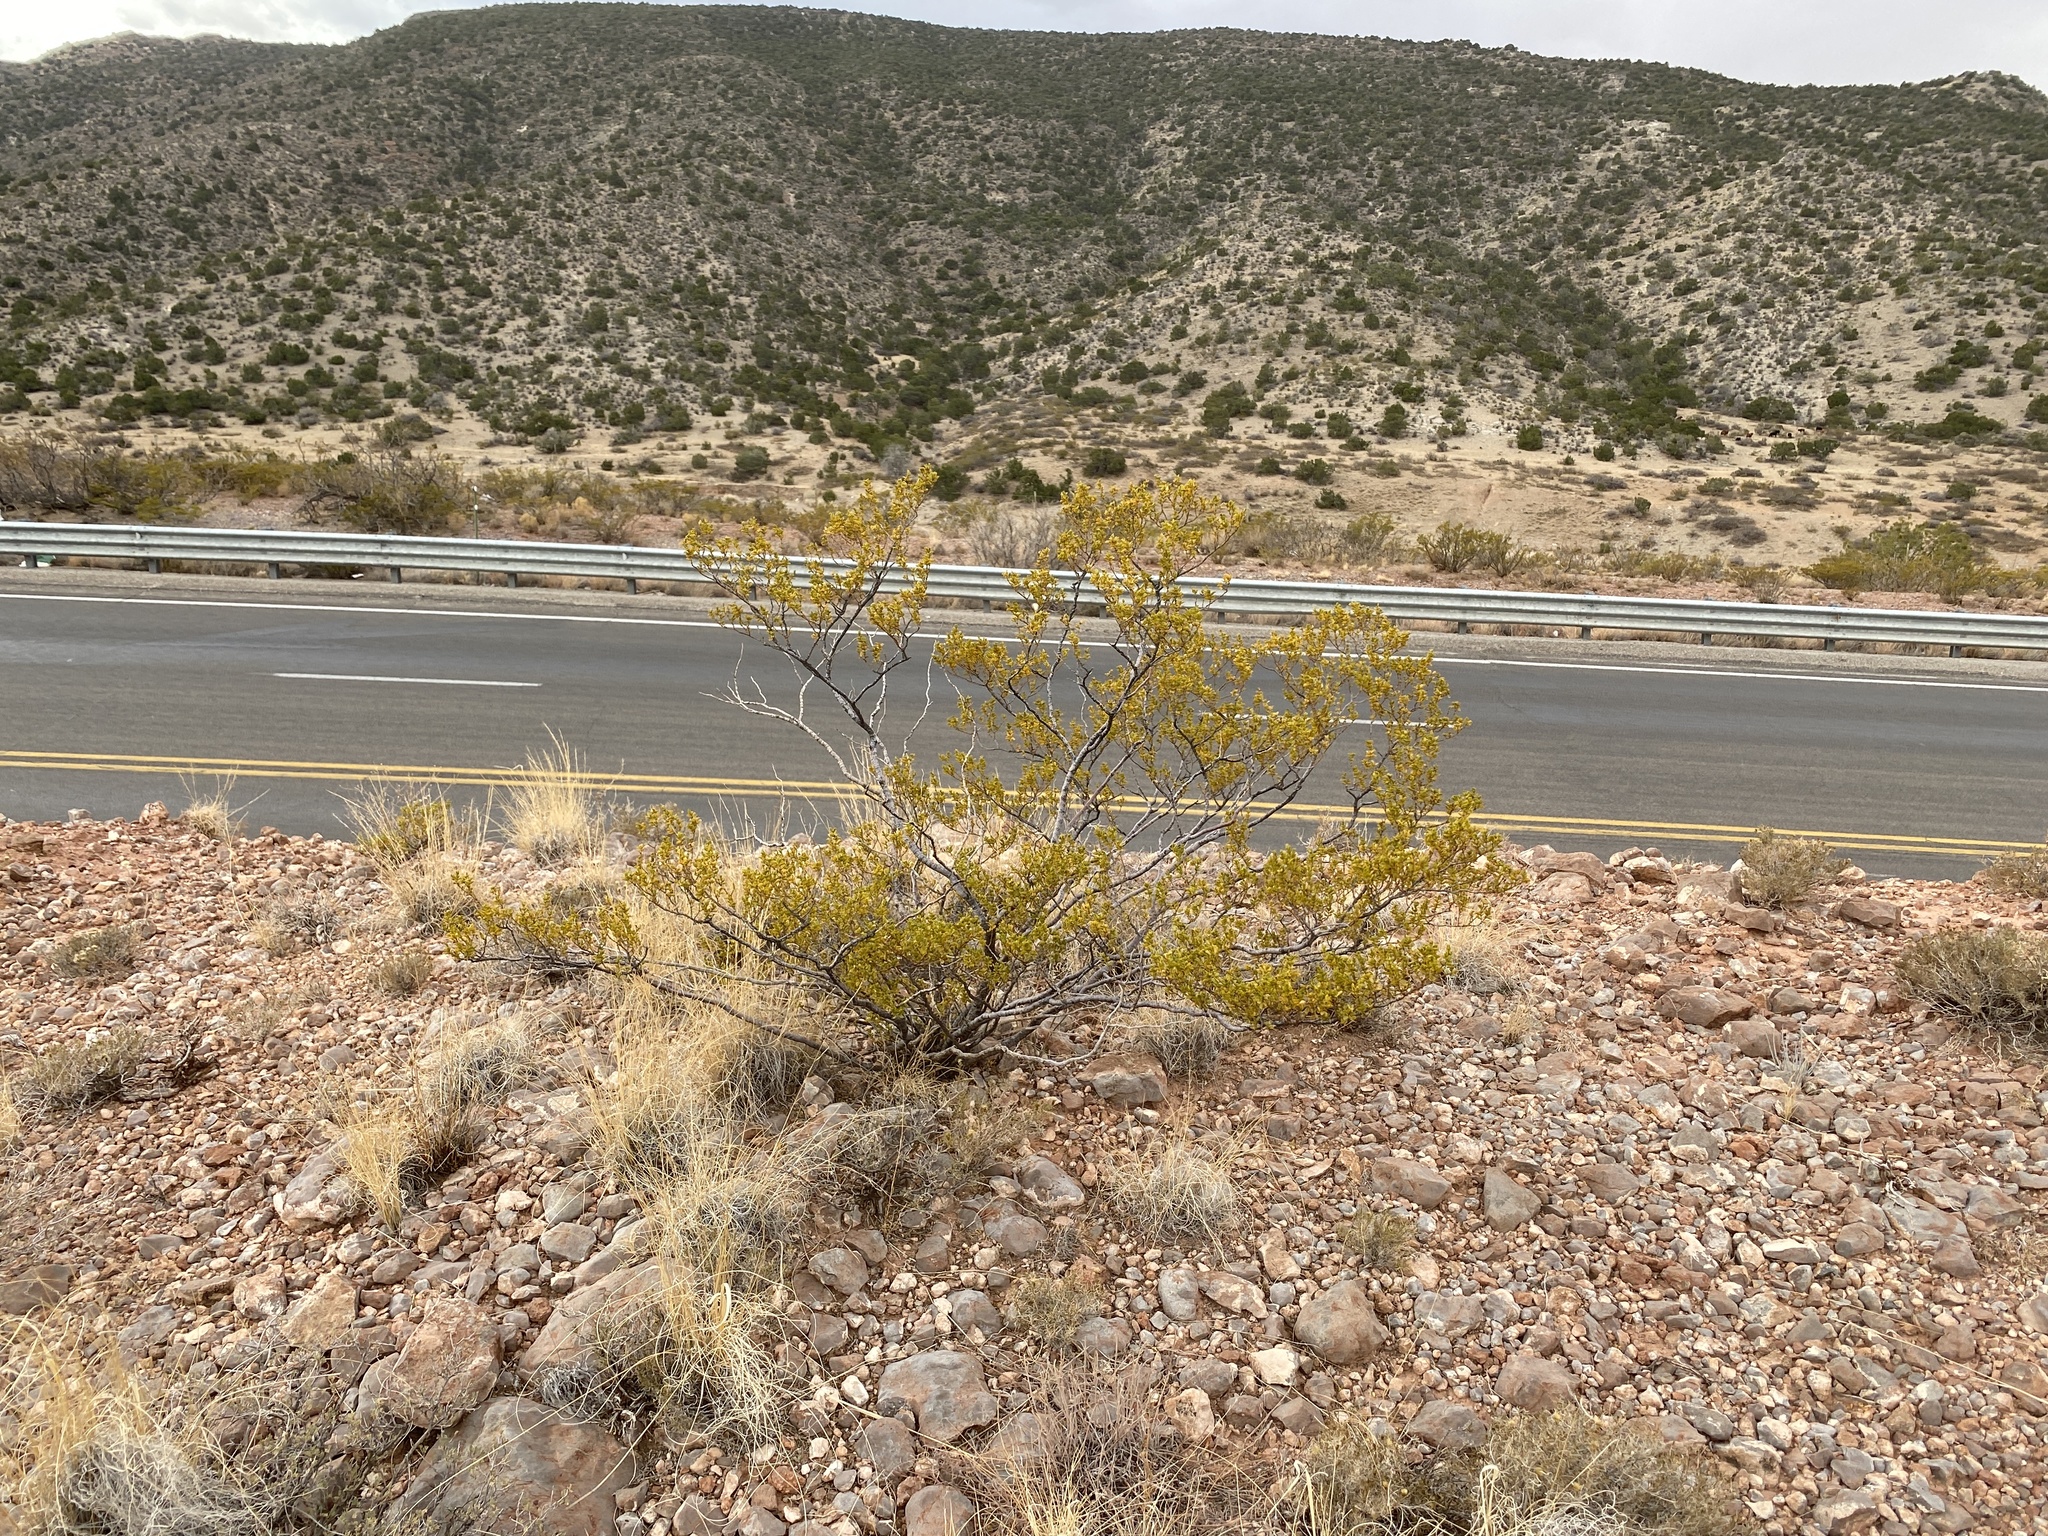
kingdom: Plantae
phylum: Tracheophyta
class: Magnoliopsida
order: Zygophyllales
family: Zygophyllaceae
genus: Larrea
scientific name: Larrea tridentata
